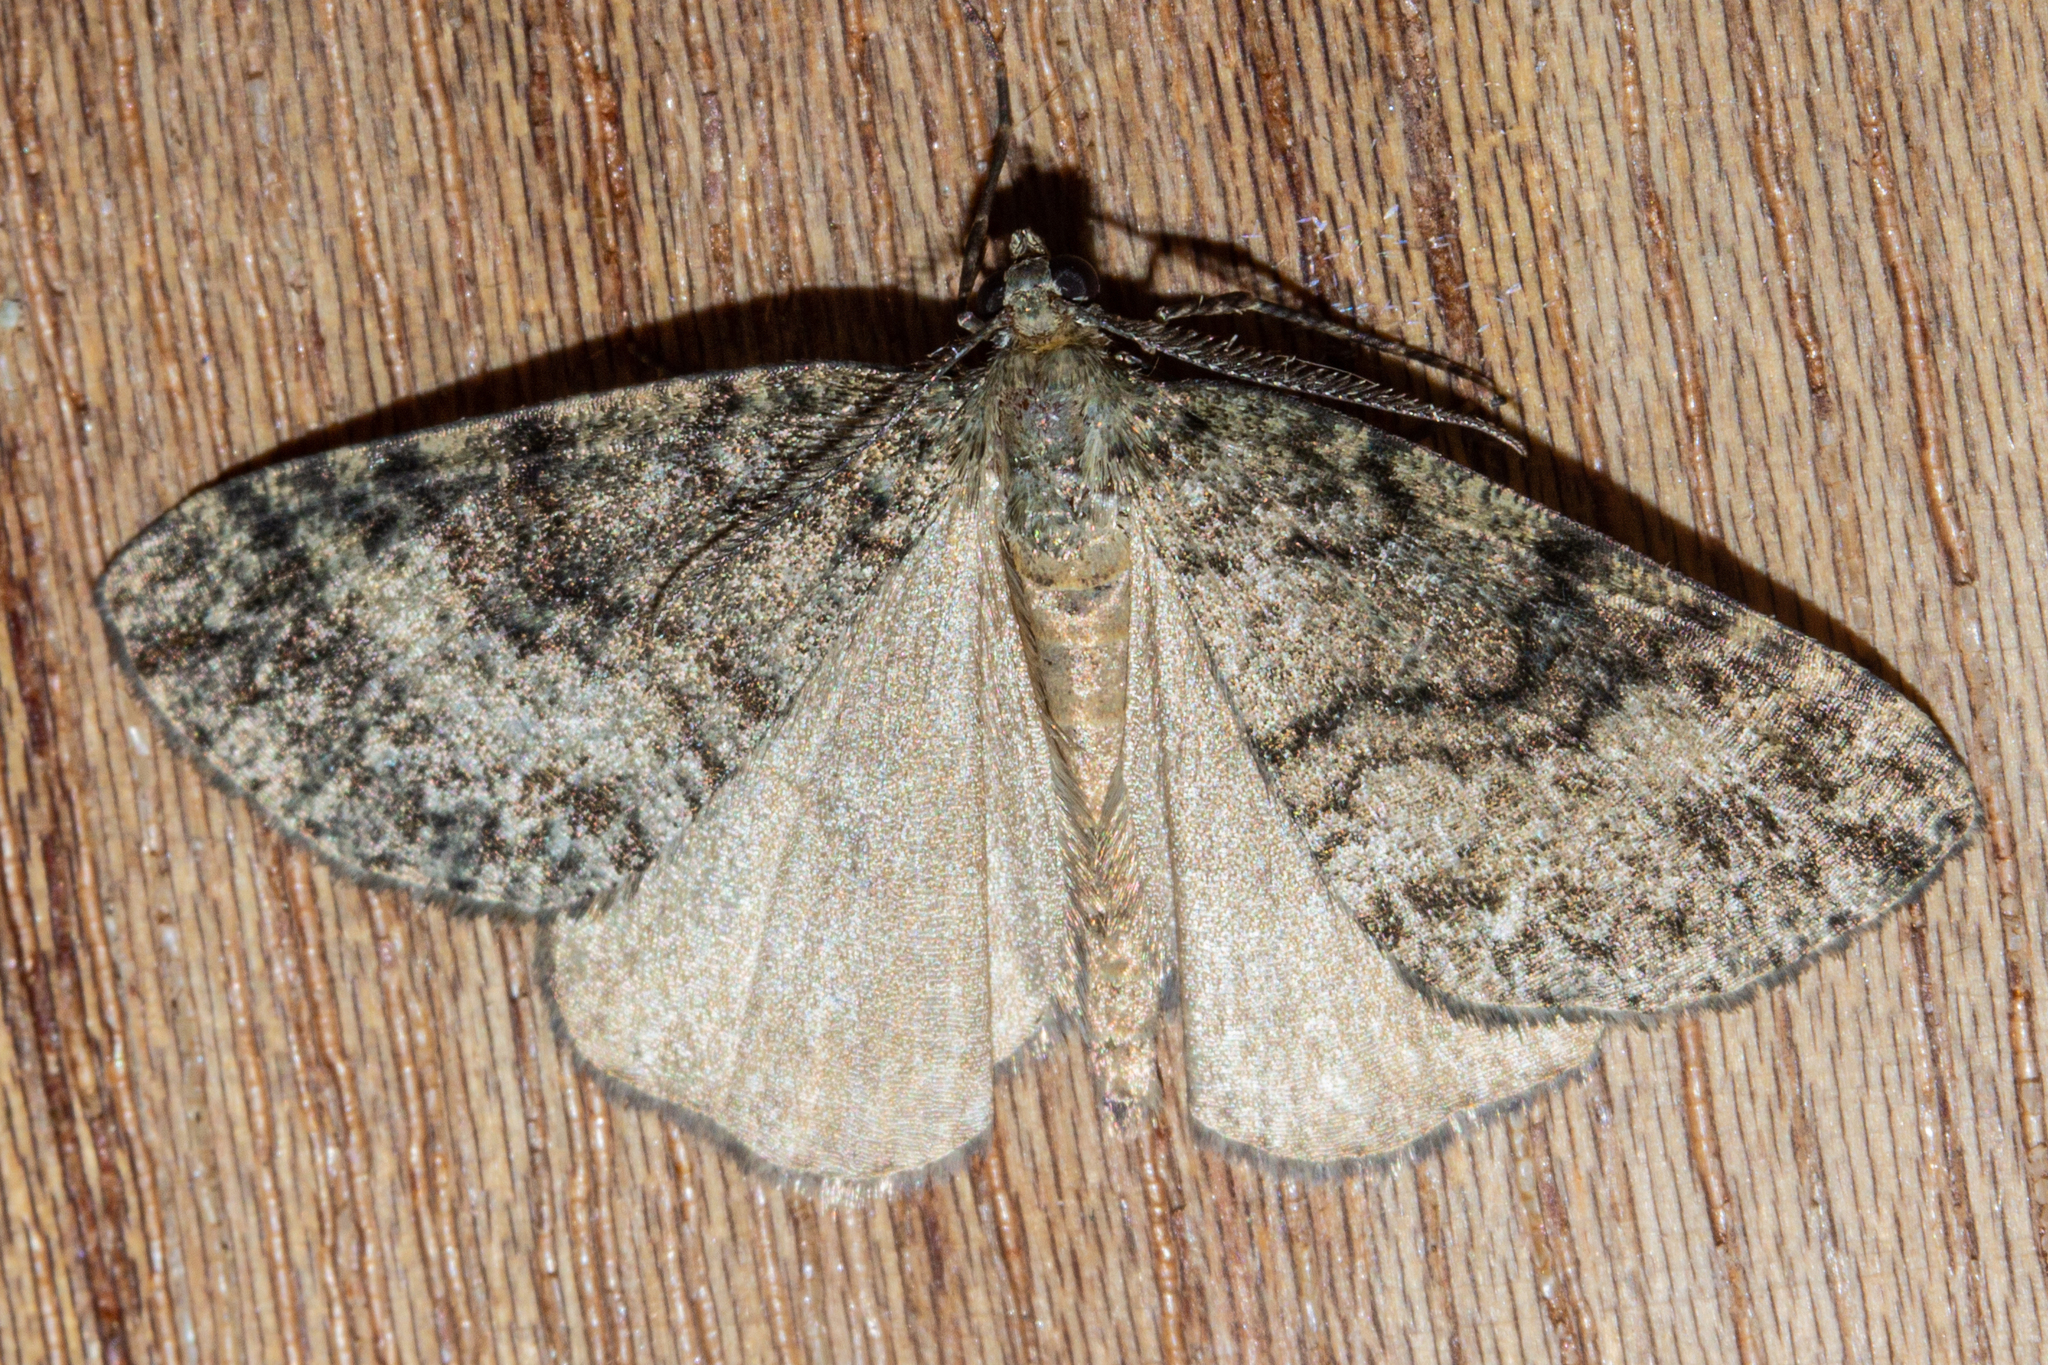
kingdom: Animalia
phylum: Arthropoda
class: Insecta
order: Lepidoptera
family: Geometridae
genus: Pseudocoremia
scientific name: Pseudocoremia indistincta
